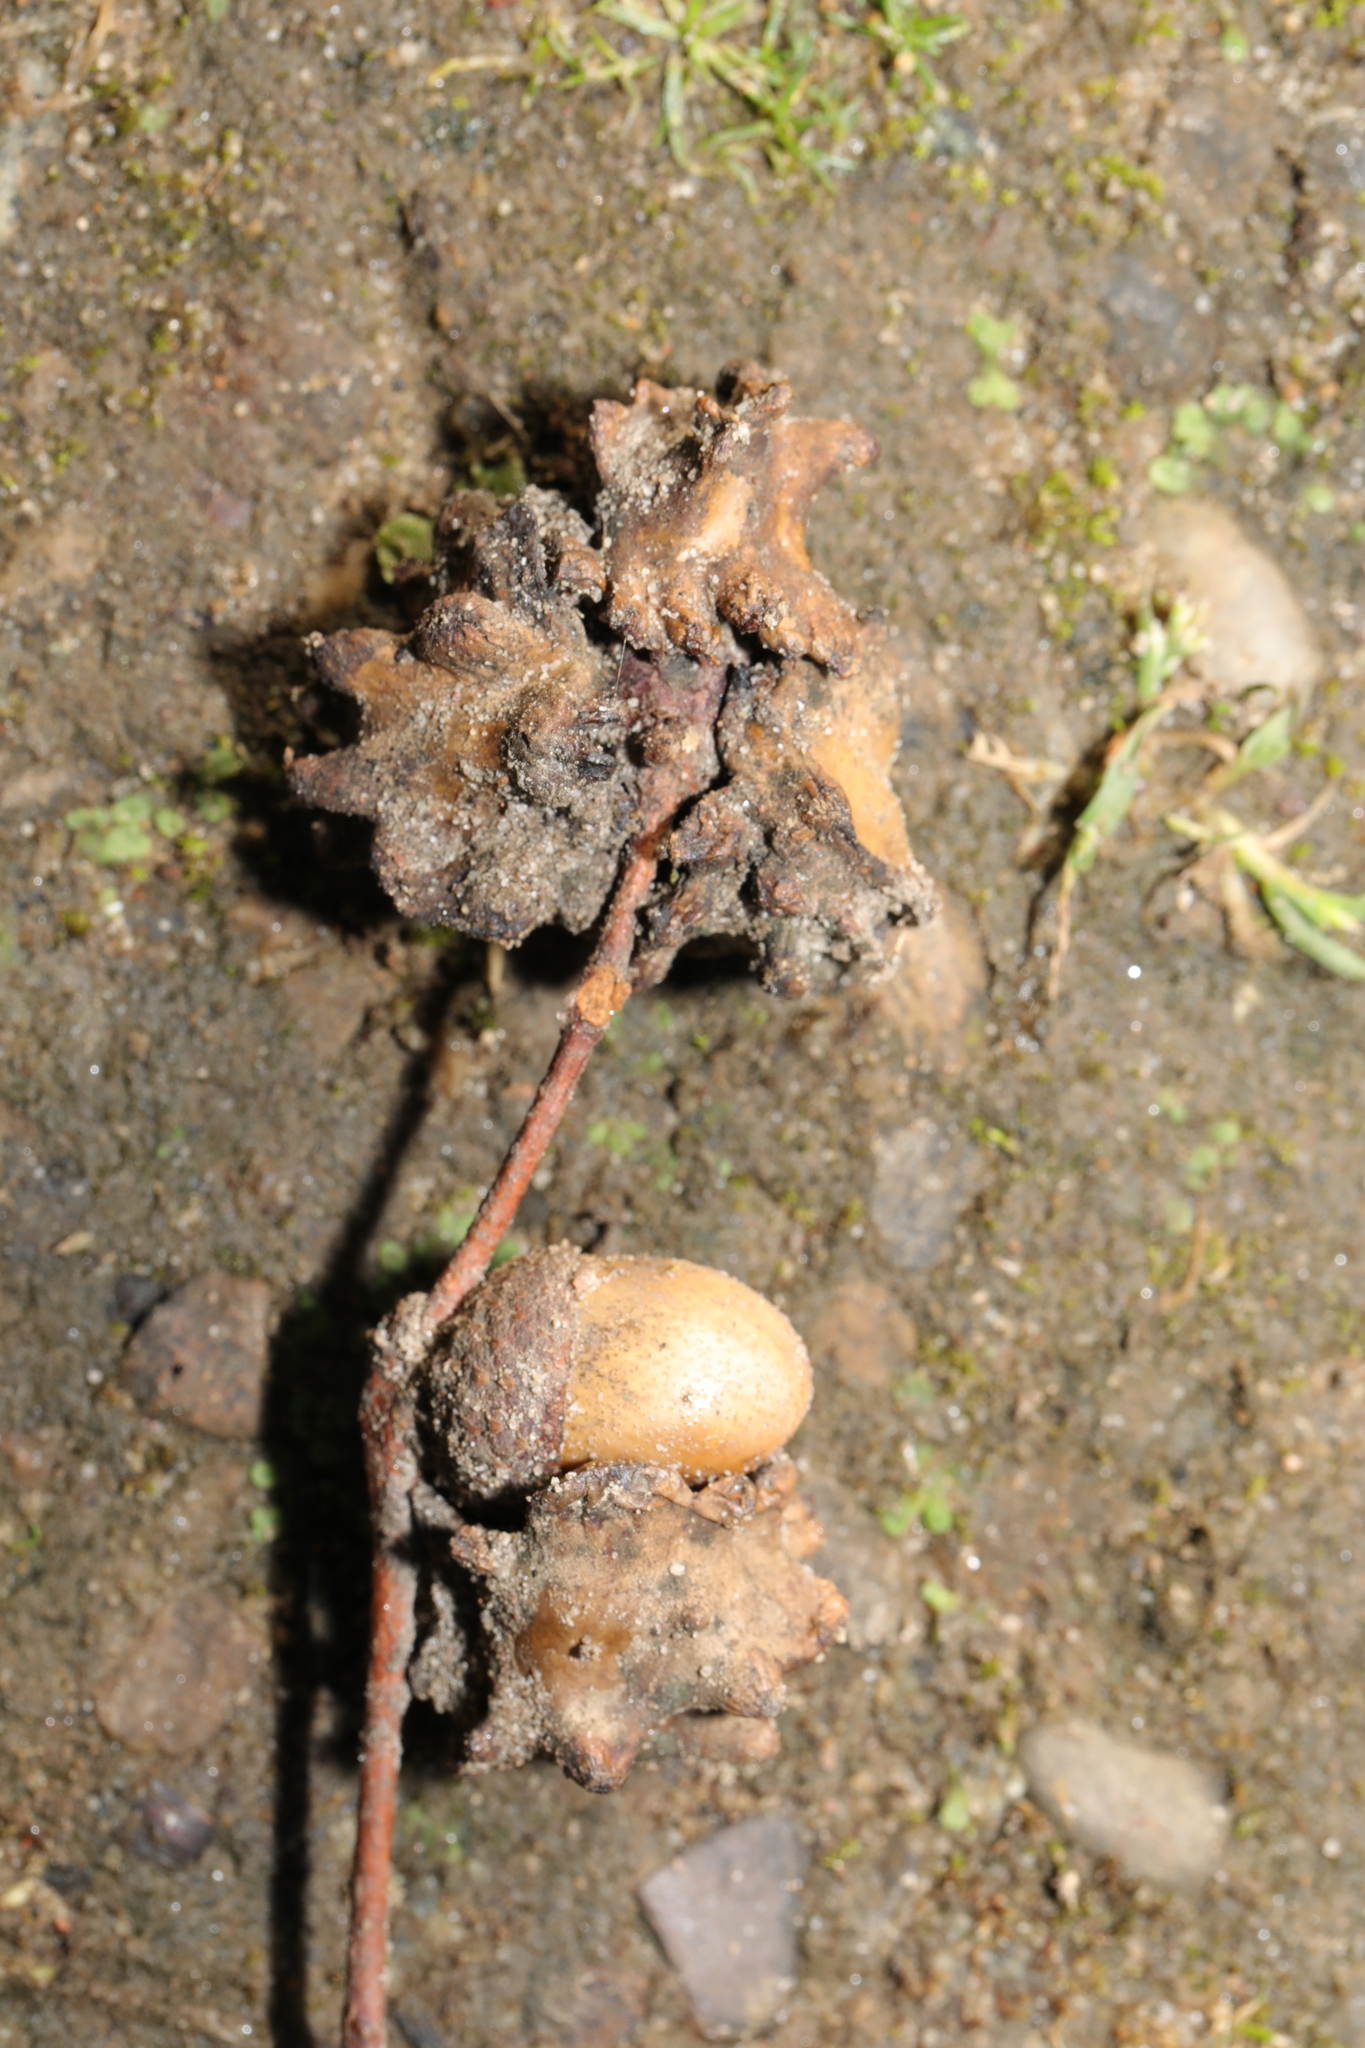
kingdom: Animalia
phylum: Arthropoda
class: Insecta
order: Hymenoptera
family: Cynipidae
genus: Andricus
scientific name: Andricus quercuscalicis
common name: Knopper gall
